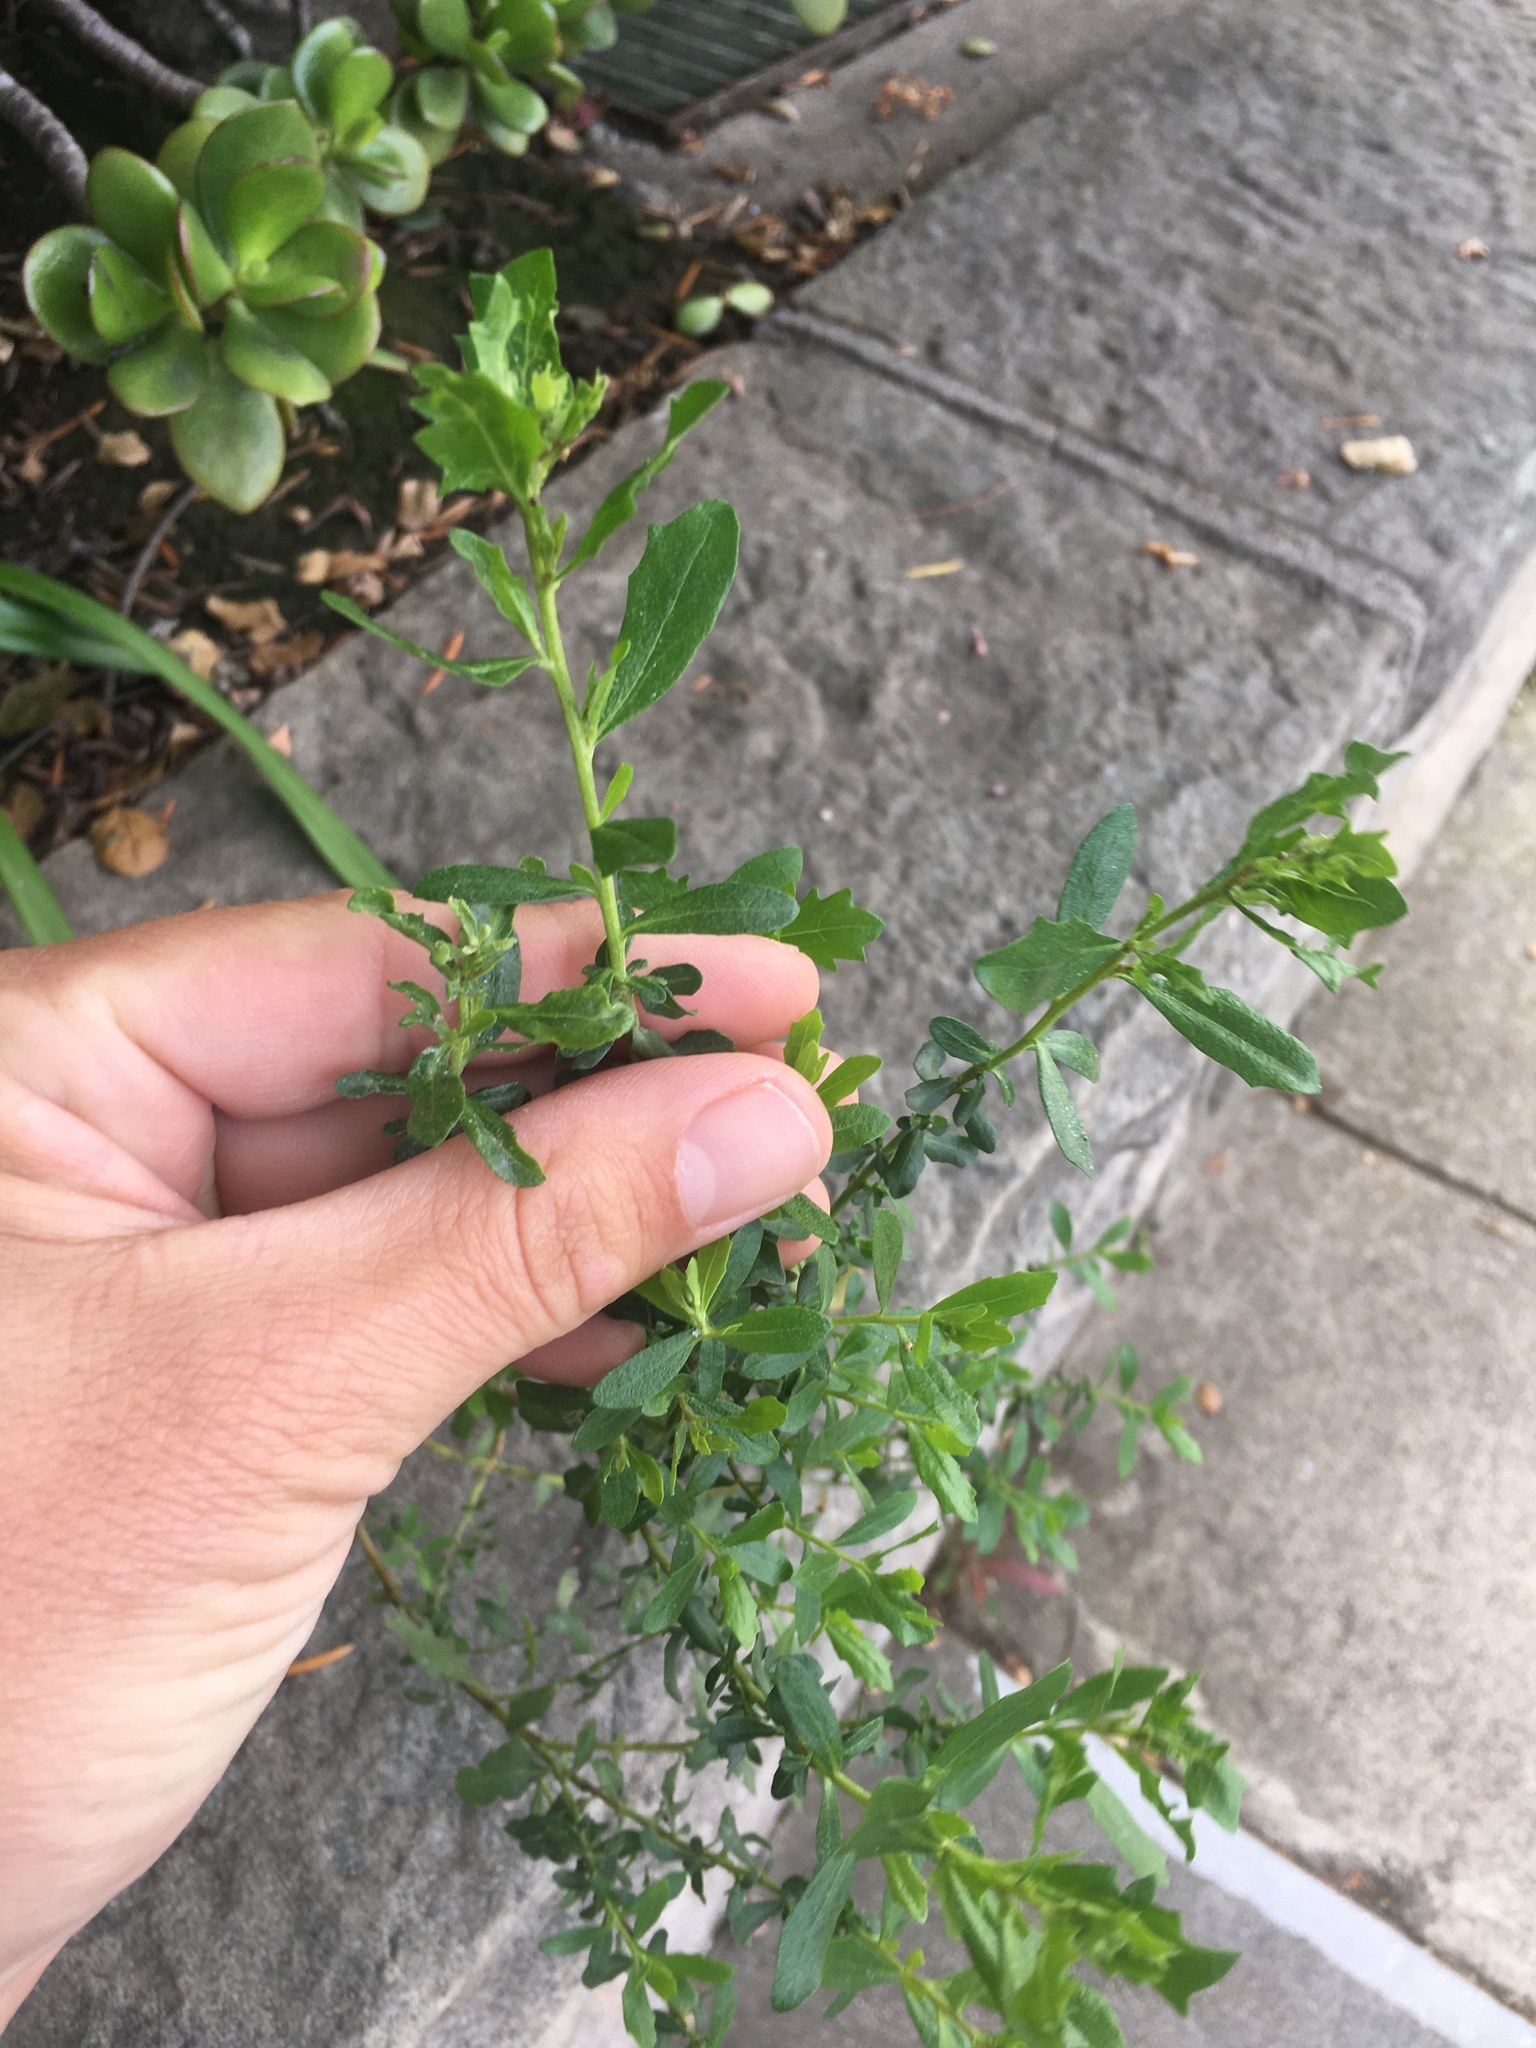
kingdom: Plantae
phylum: Tracheophyta
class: Magnoliopsida
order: Asterales
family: Asteraceae
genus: Baccharis
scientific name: Baccharis pilularis
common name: Coyotebrush
